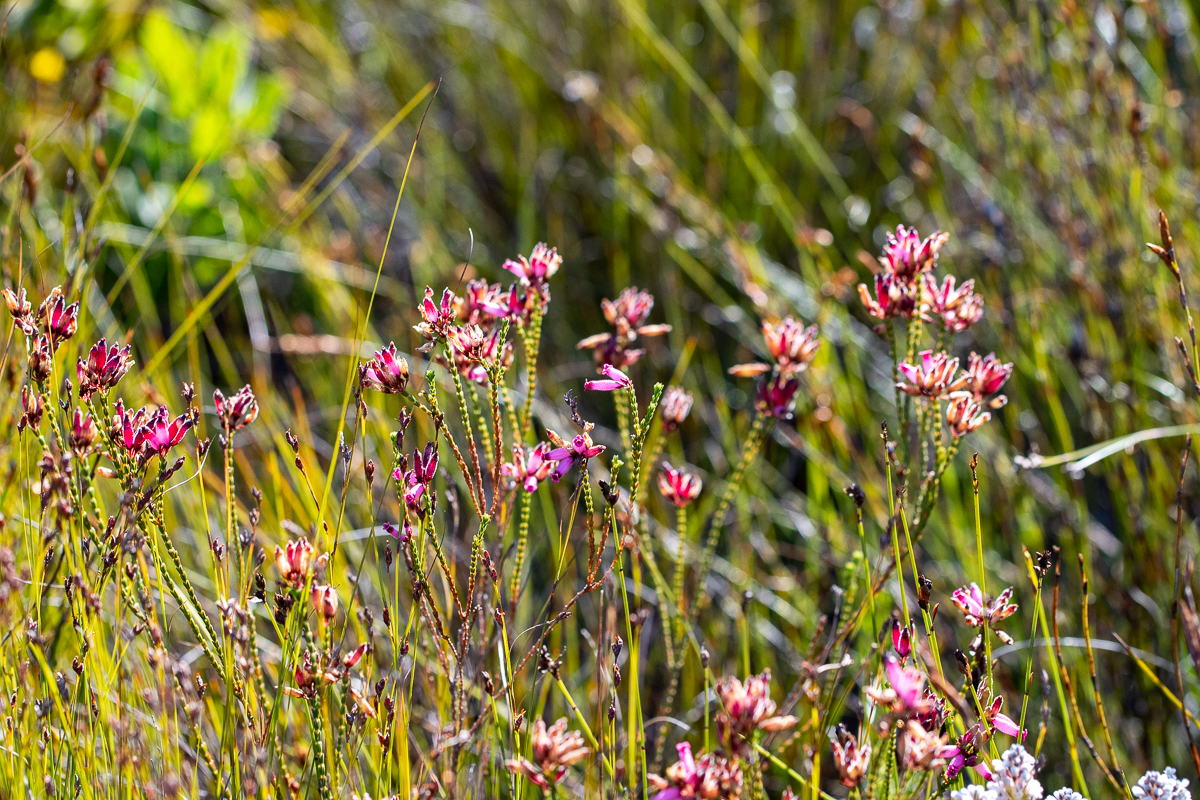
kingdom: Plantae
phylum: Tracheophyta
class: Magnoliopsida
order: Ericales
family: Ericaceae
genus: Erica
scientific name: Erica cristata
